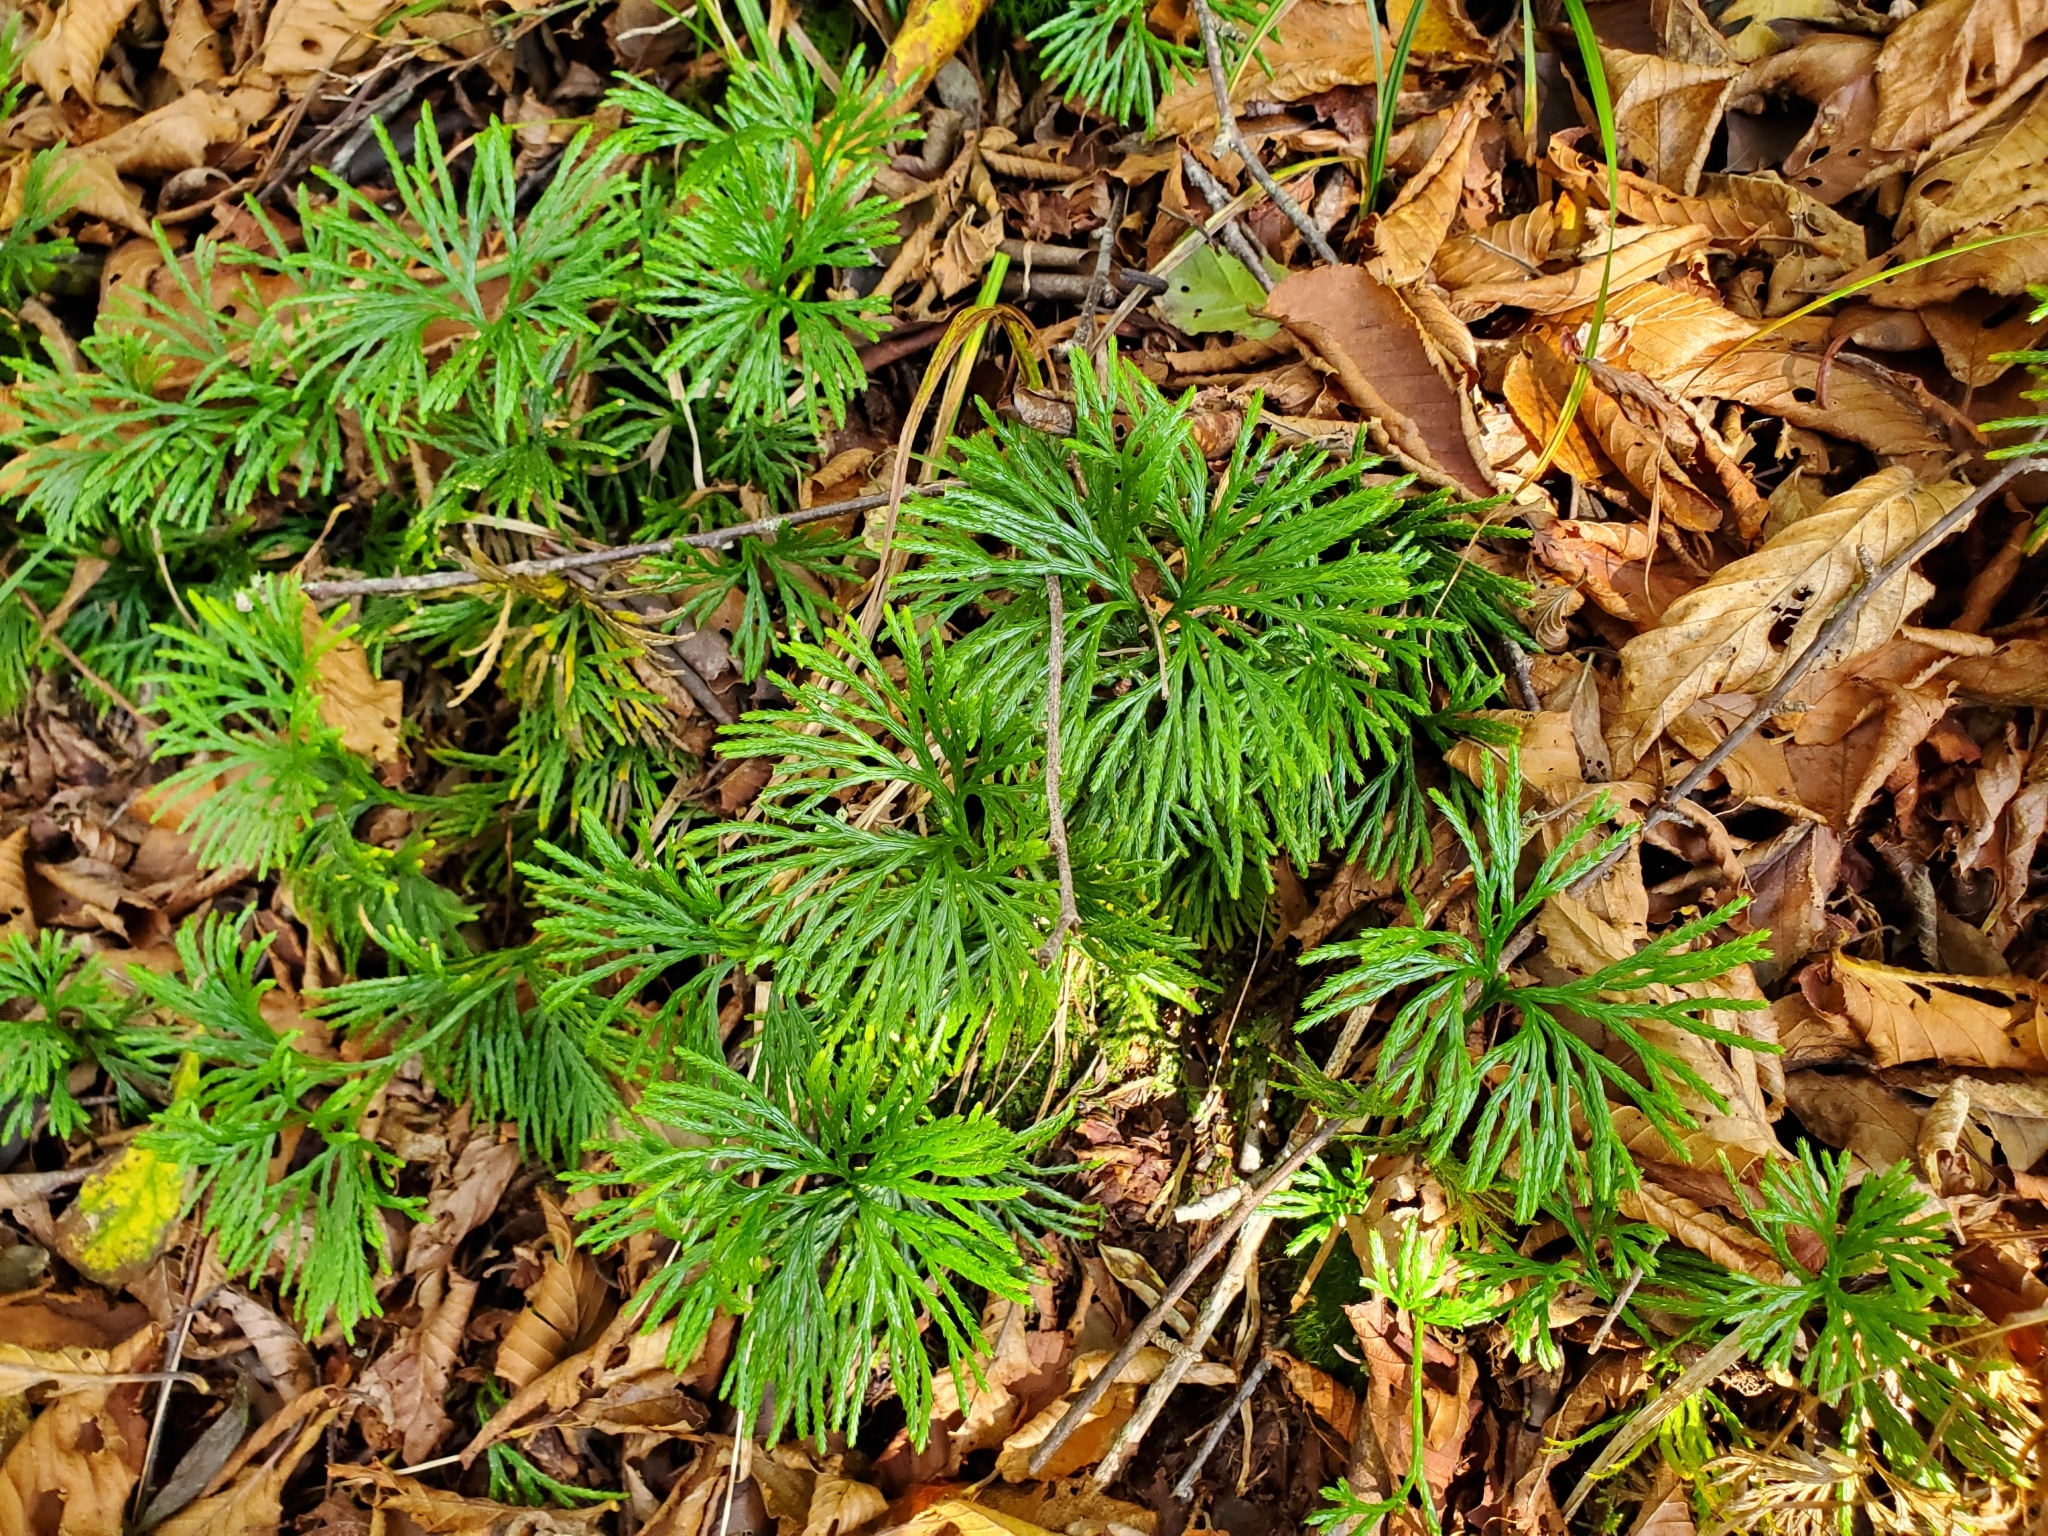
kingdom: Plantae
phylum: Tracheophyta
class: Lycopodiopsida
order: Lycopodiales
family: Lycopodiaceae
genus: Diphasiastrum
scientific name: Diphasiastrum digitatum
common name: Southern running-pine
